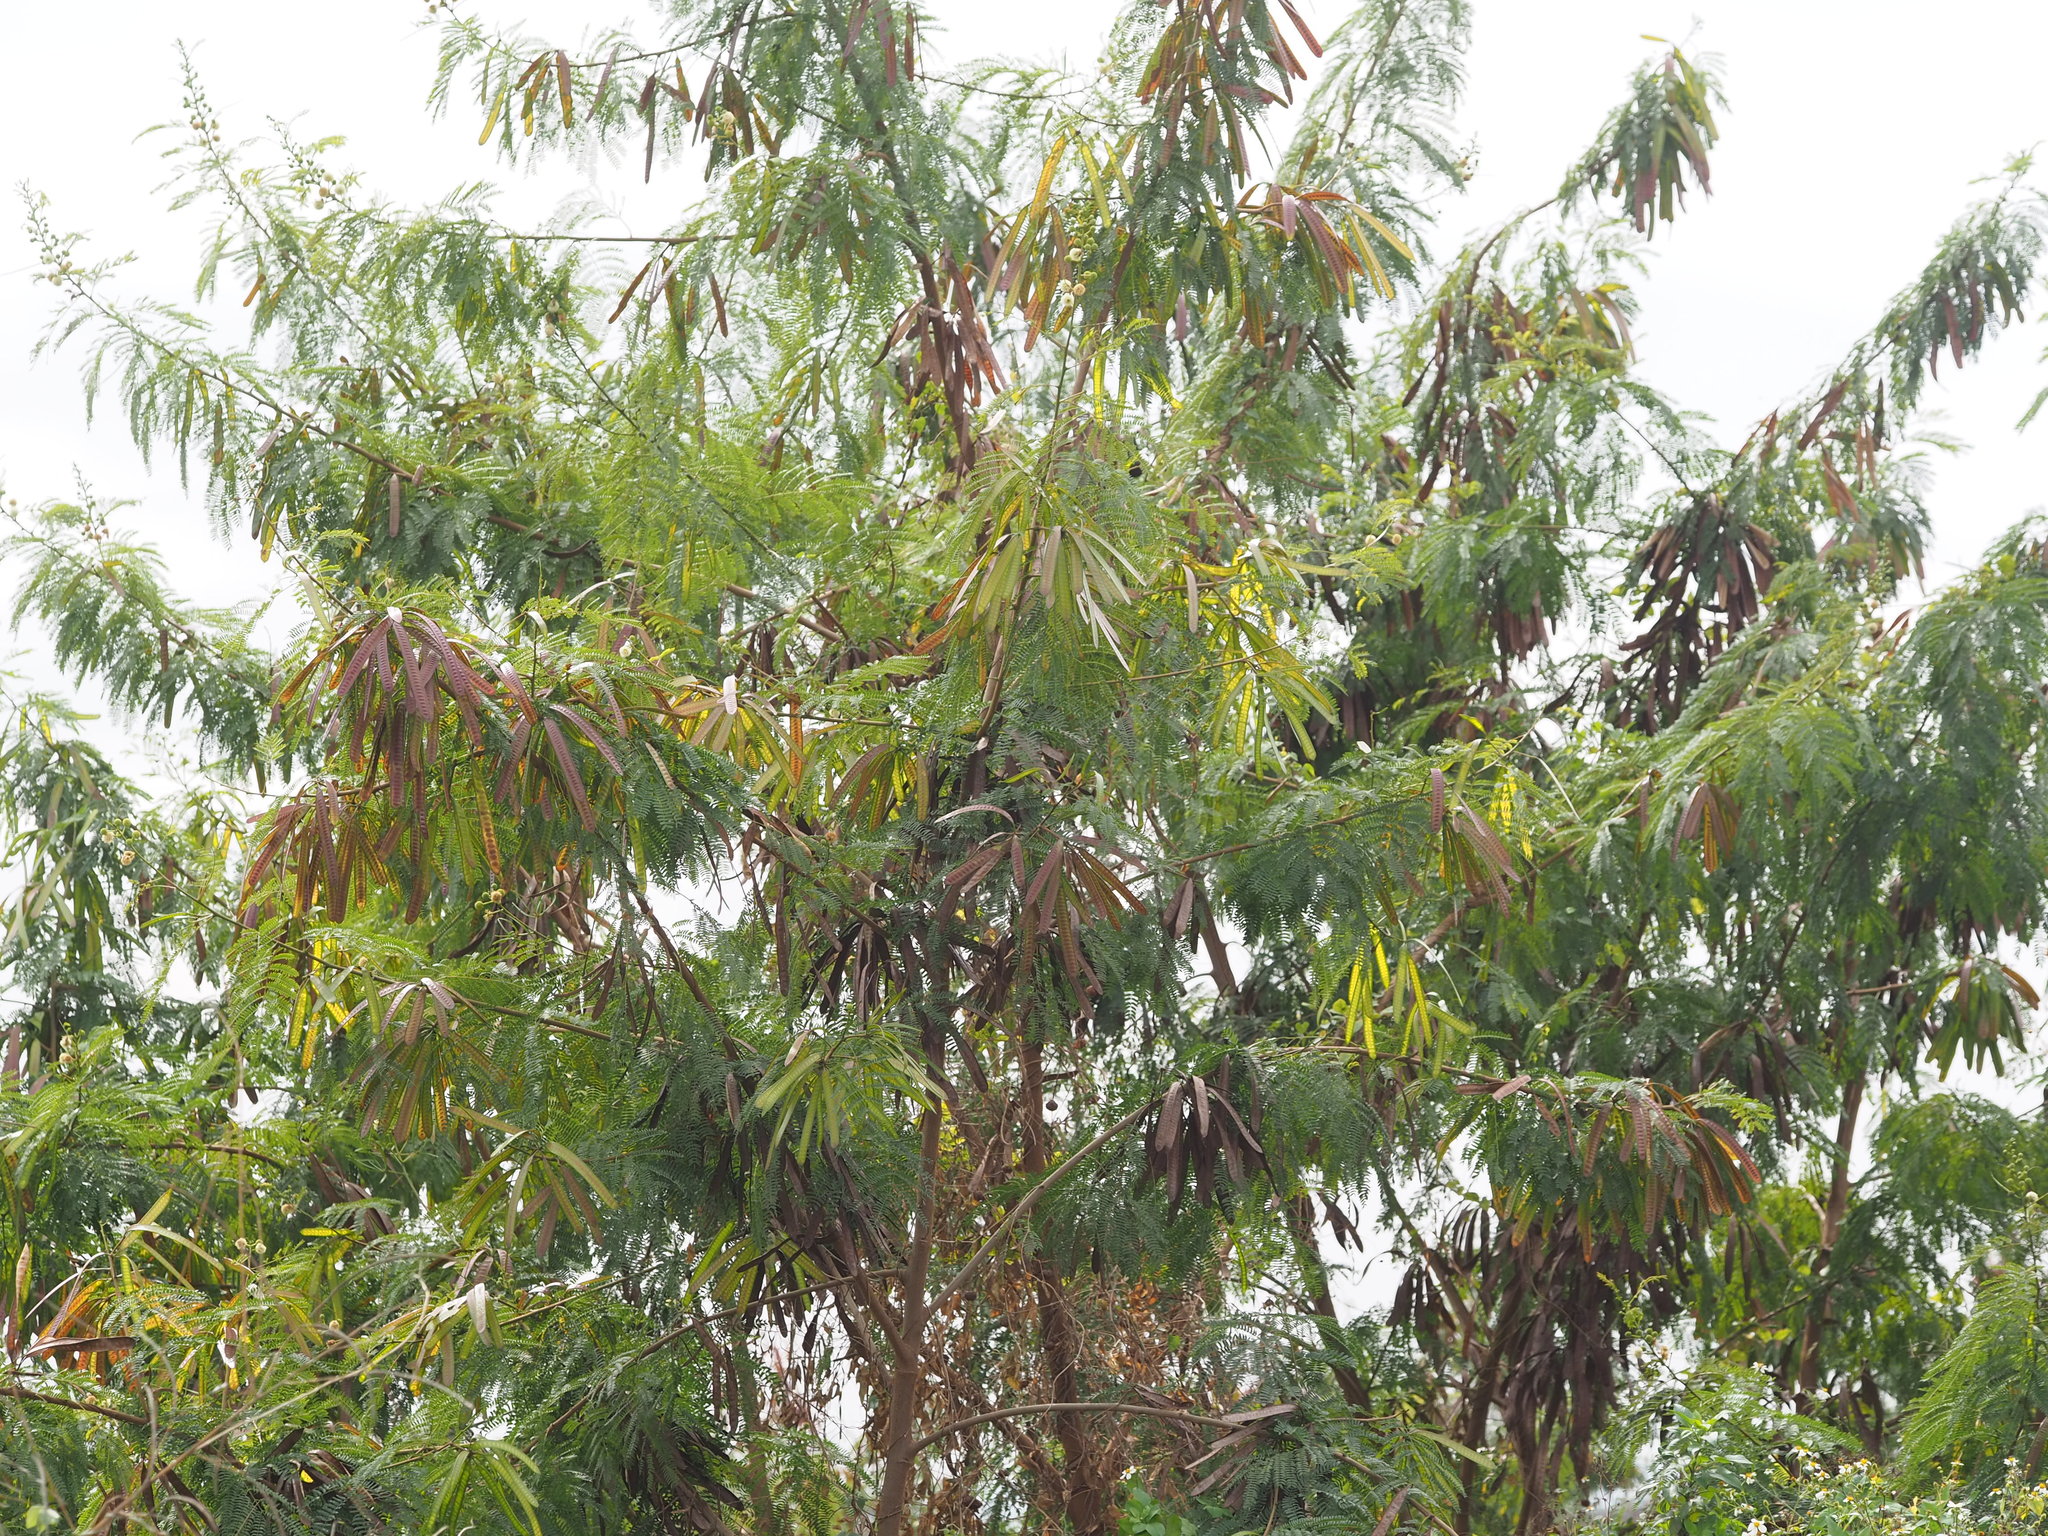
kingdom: Plantae
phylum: Tracheophyta
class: Magnoliopsida
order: Fabales
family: Fabaceae
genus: Leucaena
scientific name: Leucaena leucocephala
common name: White leadtree
